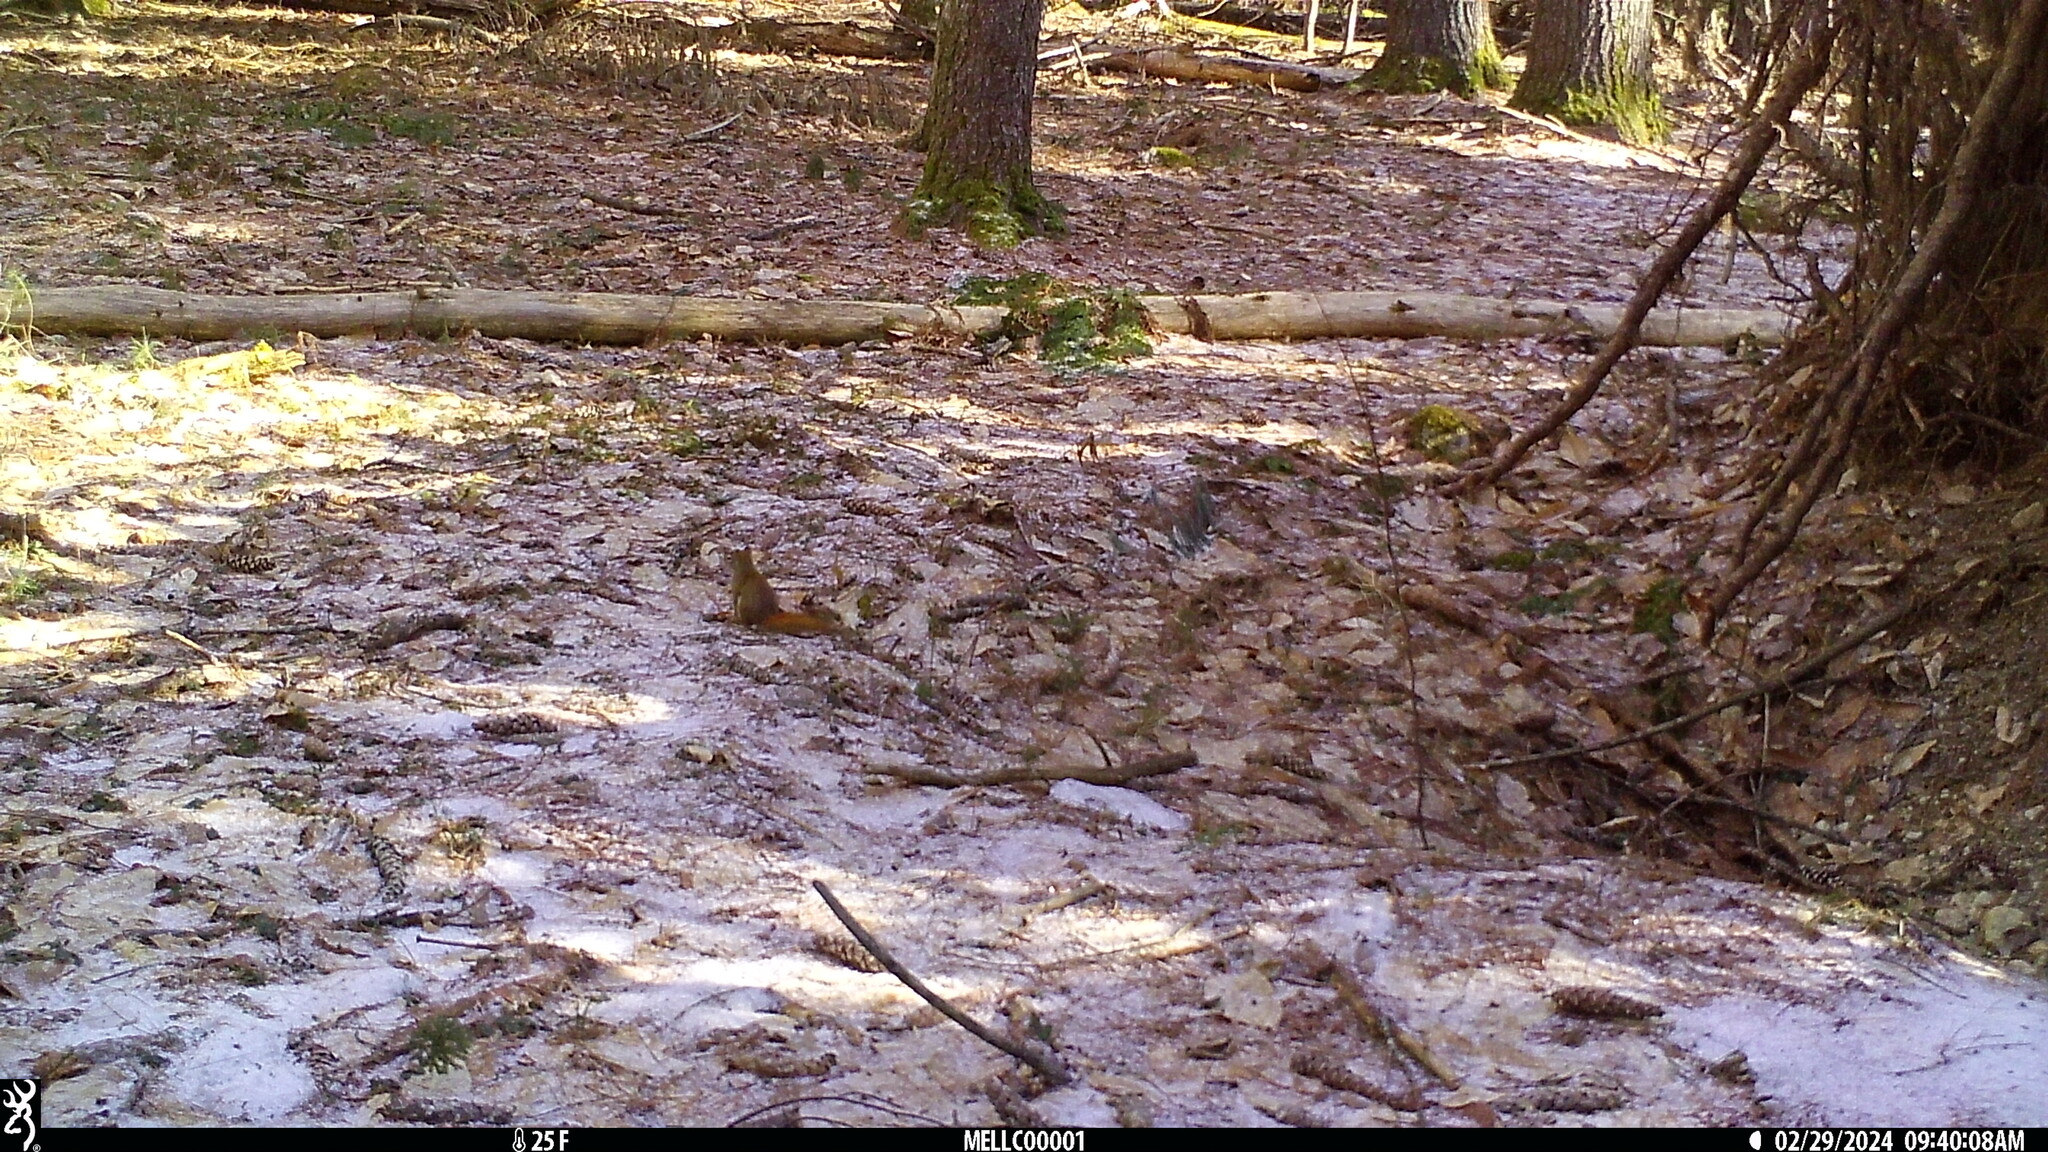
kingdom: Animalia
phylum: Chordata
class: Mammalia
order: Rodentia
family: Sciuridae
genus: Tamiasciurus
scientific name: Tamiasciurus hudsonicus
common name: Red squirrel
